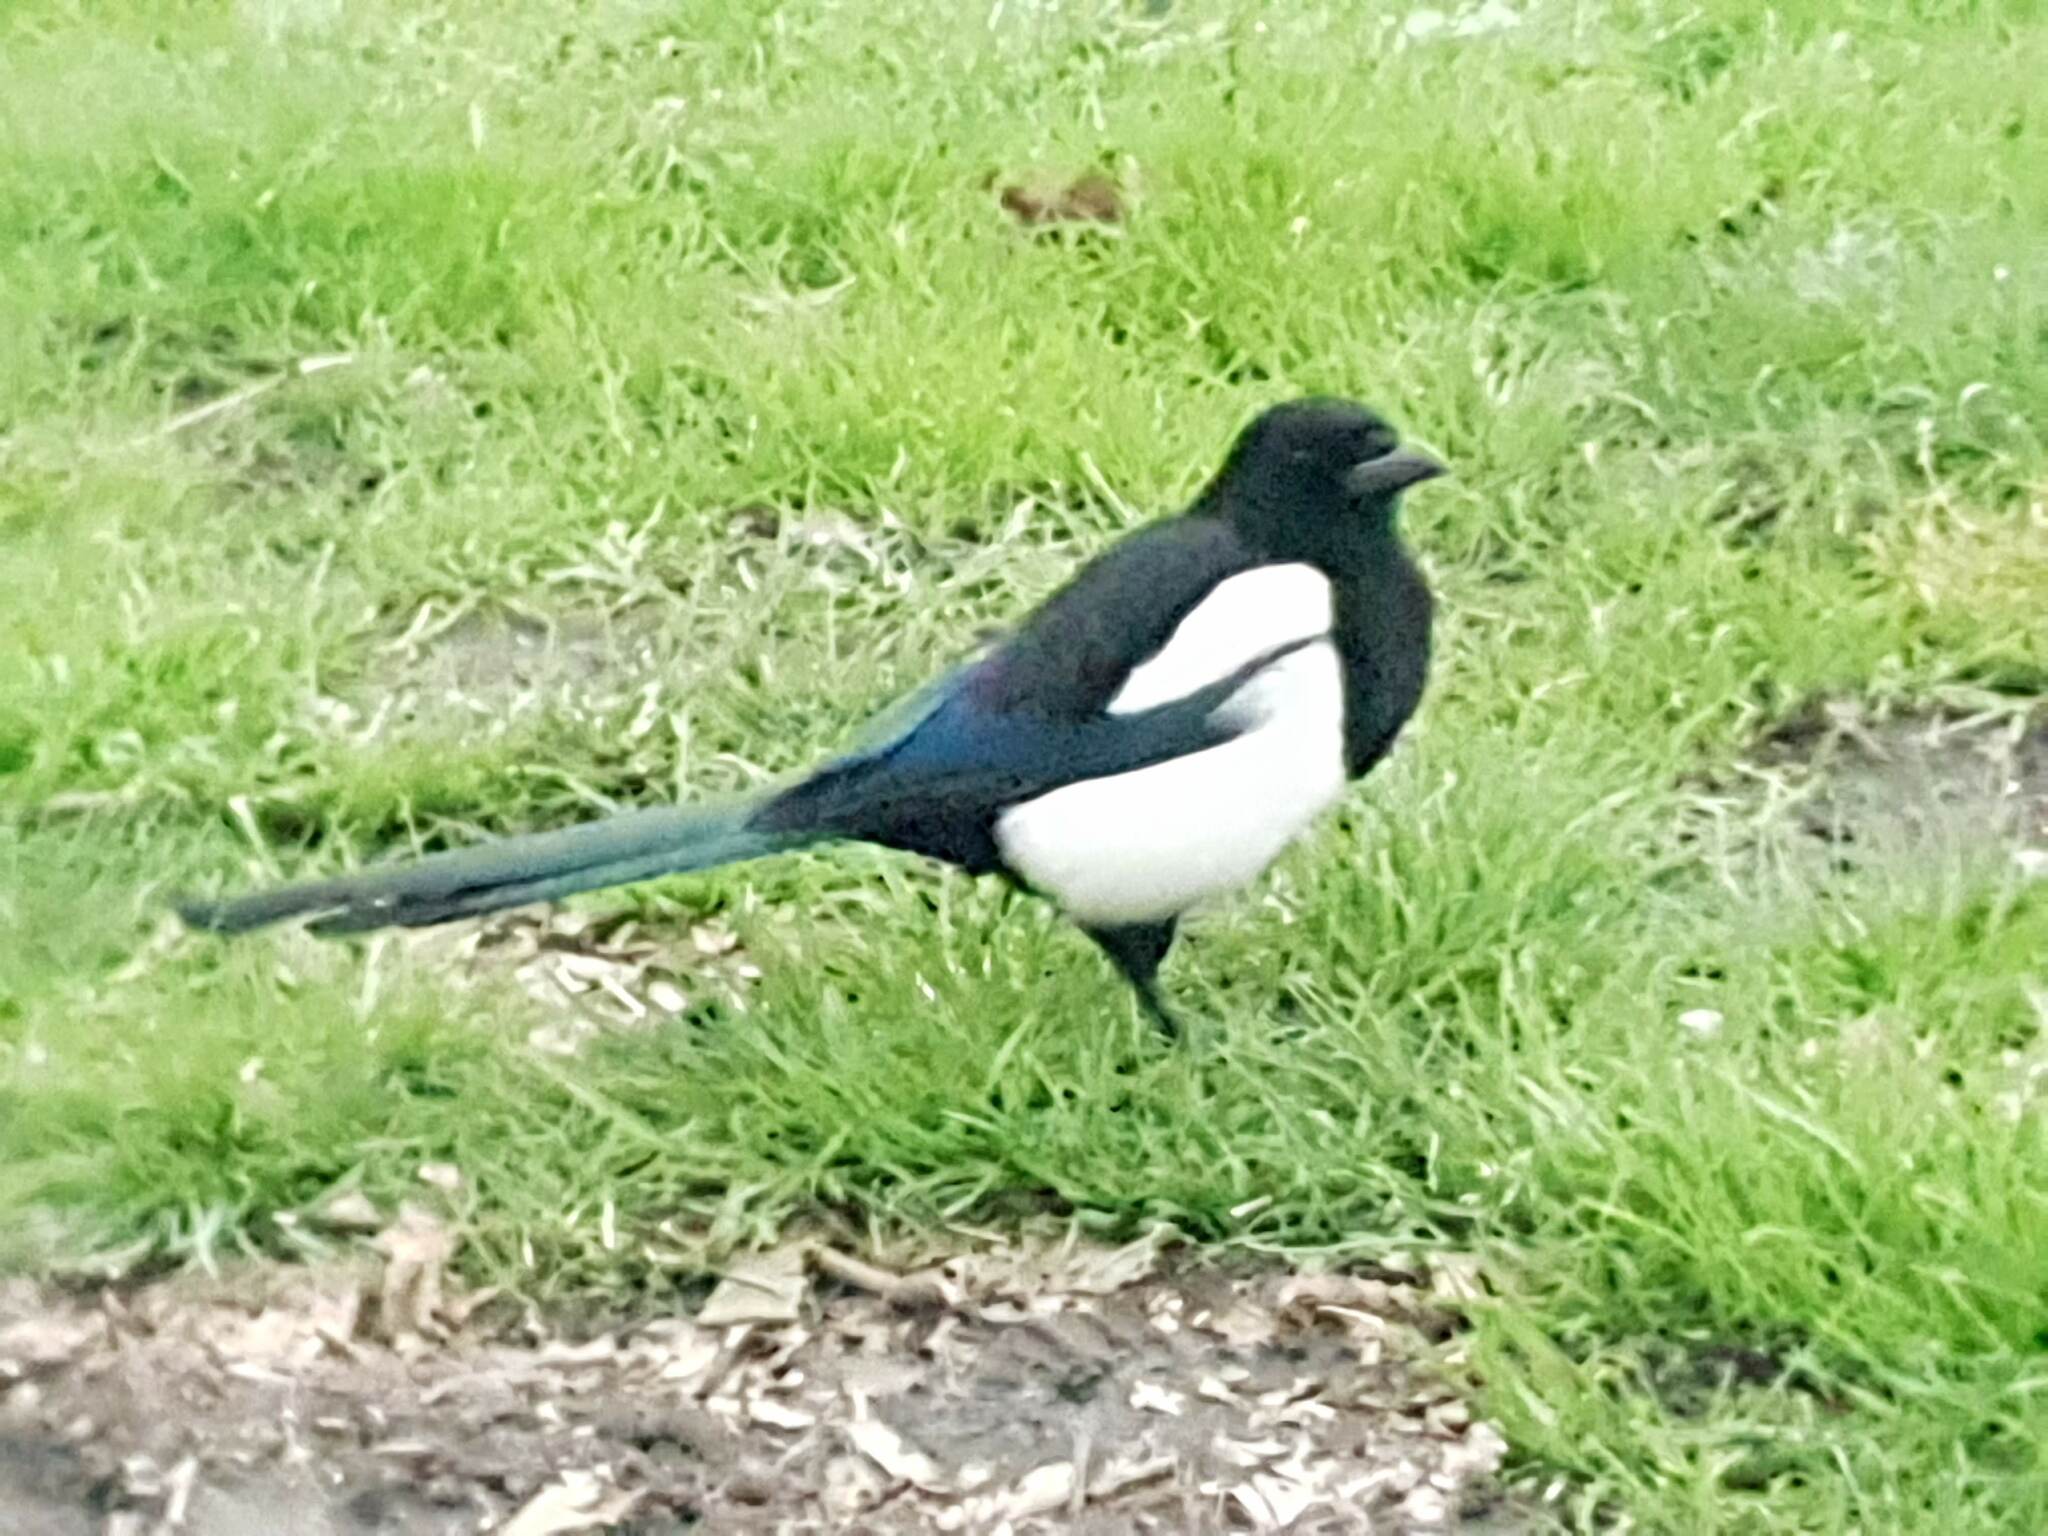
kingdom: Animalia
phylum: Chordata
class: Aves
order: Passeriformes
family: Corvidae
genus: Pica
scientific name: Pica pica
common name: Eurasian magpie
